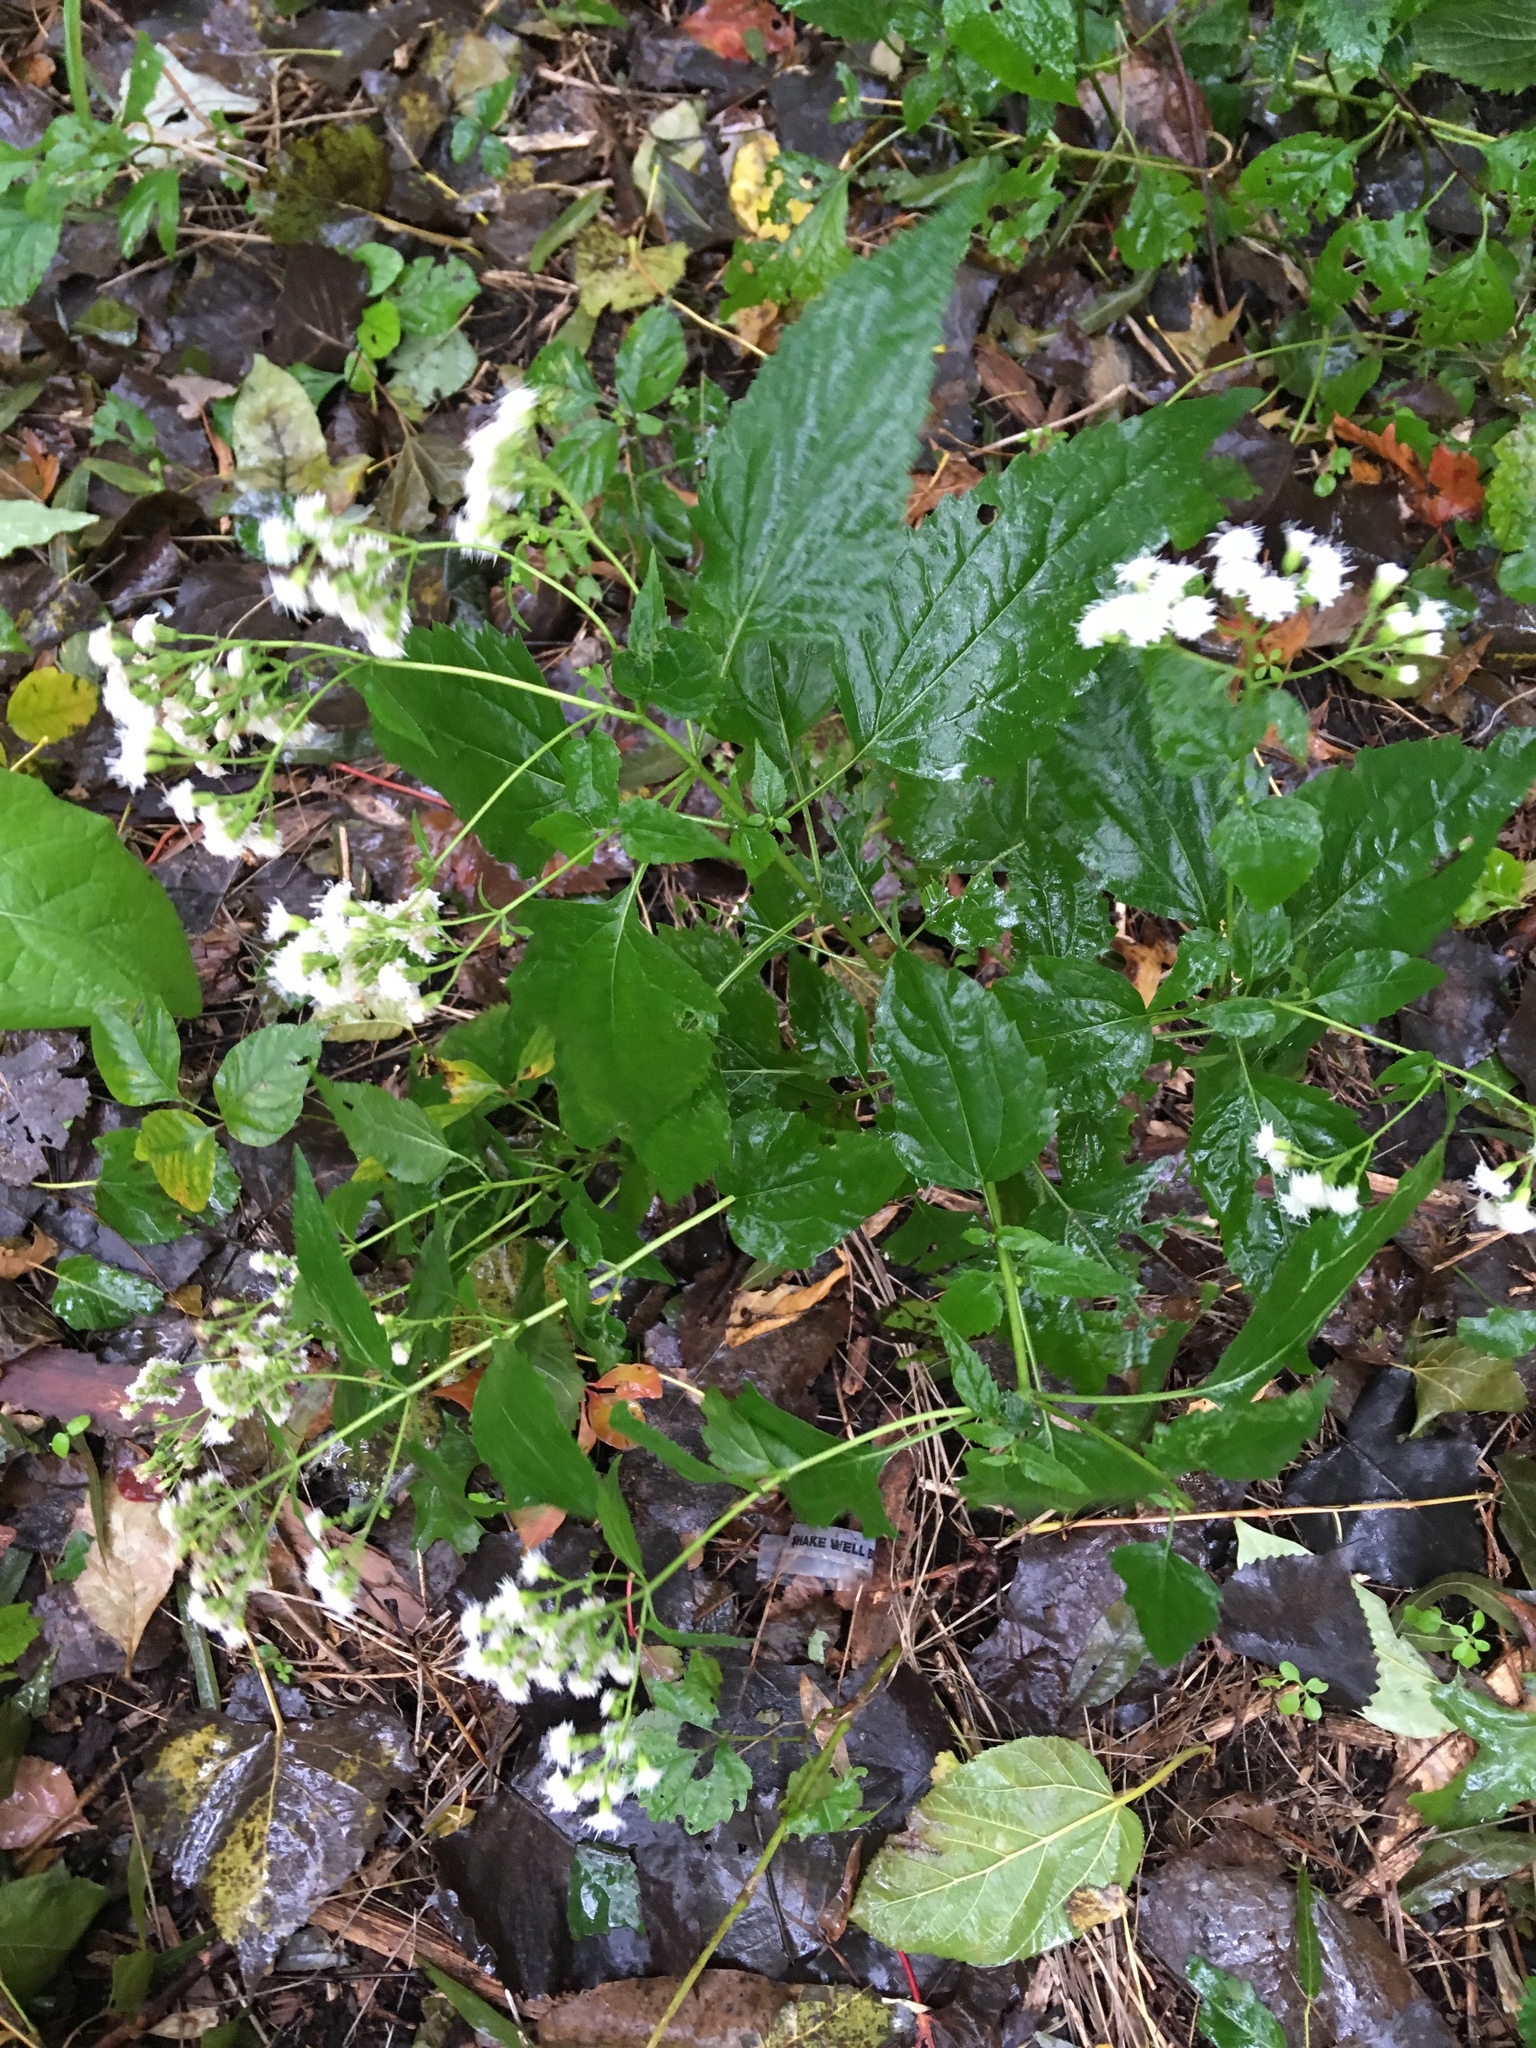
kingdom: Plantae
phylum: Tracheophyta
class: Magnoliopsida
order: Asterales
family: Asteraceae
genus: Ageratina
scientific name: Ageratina altissima
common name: White snakeroot
